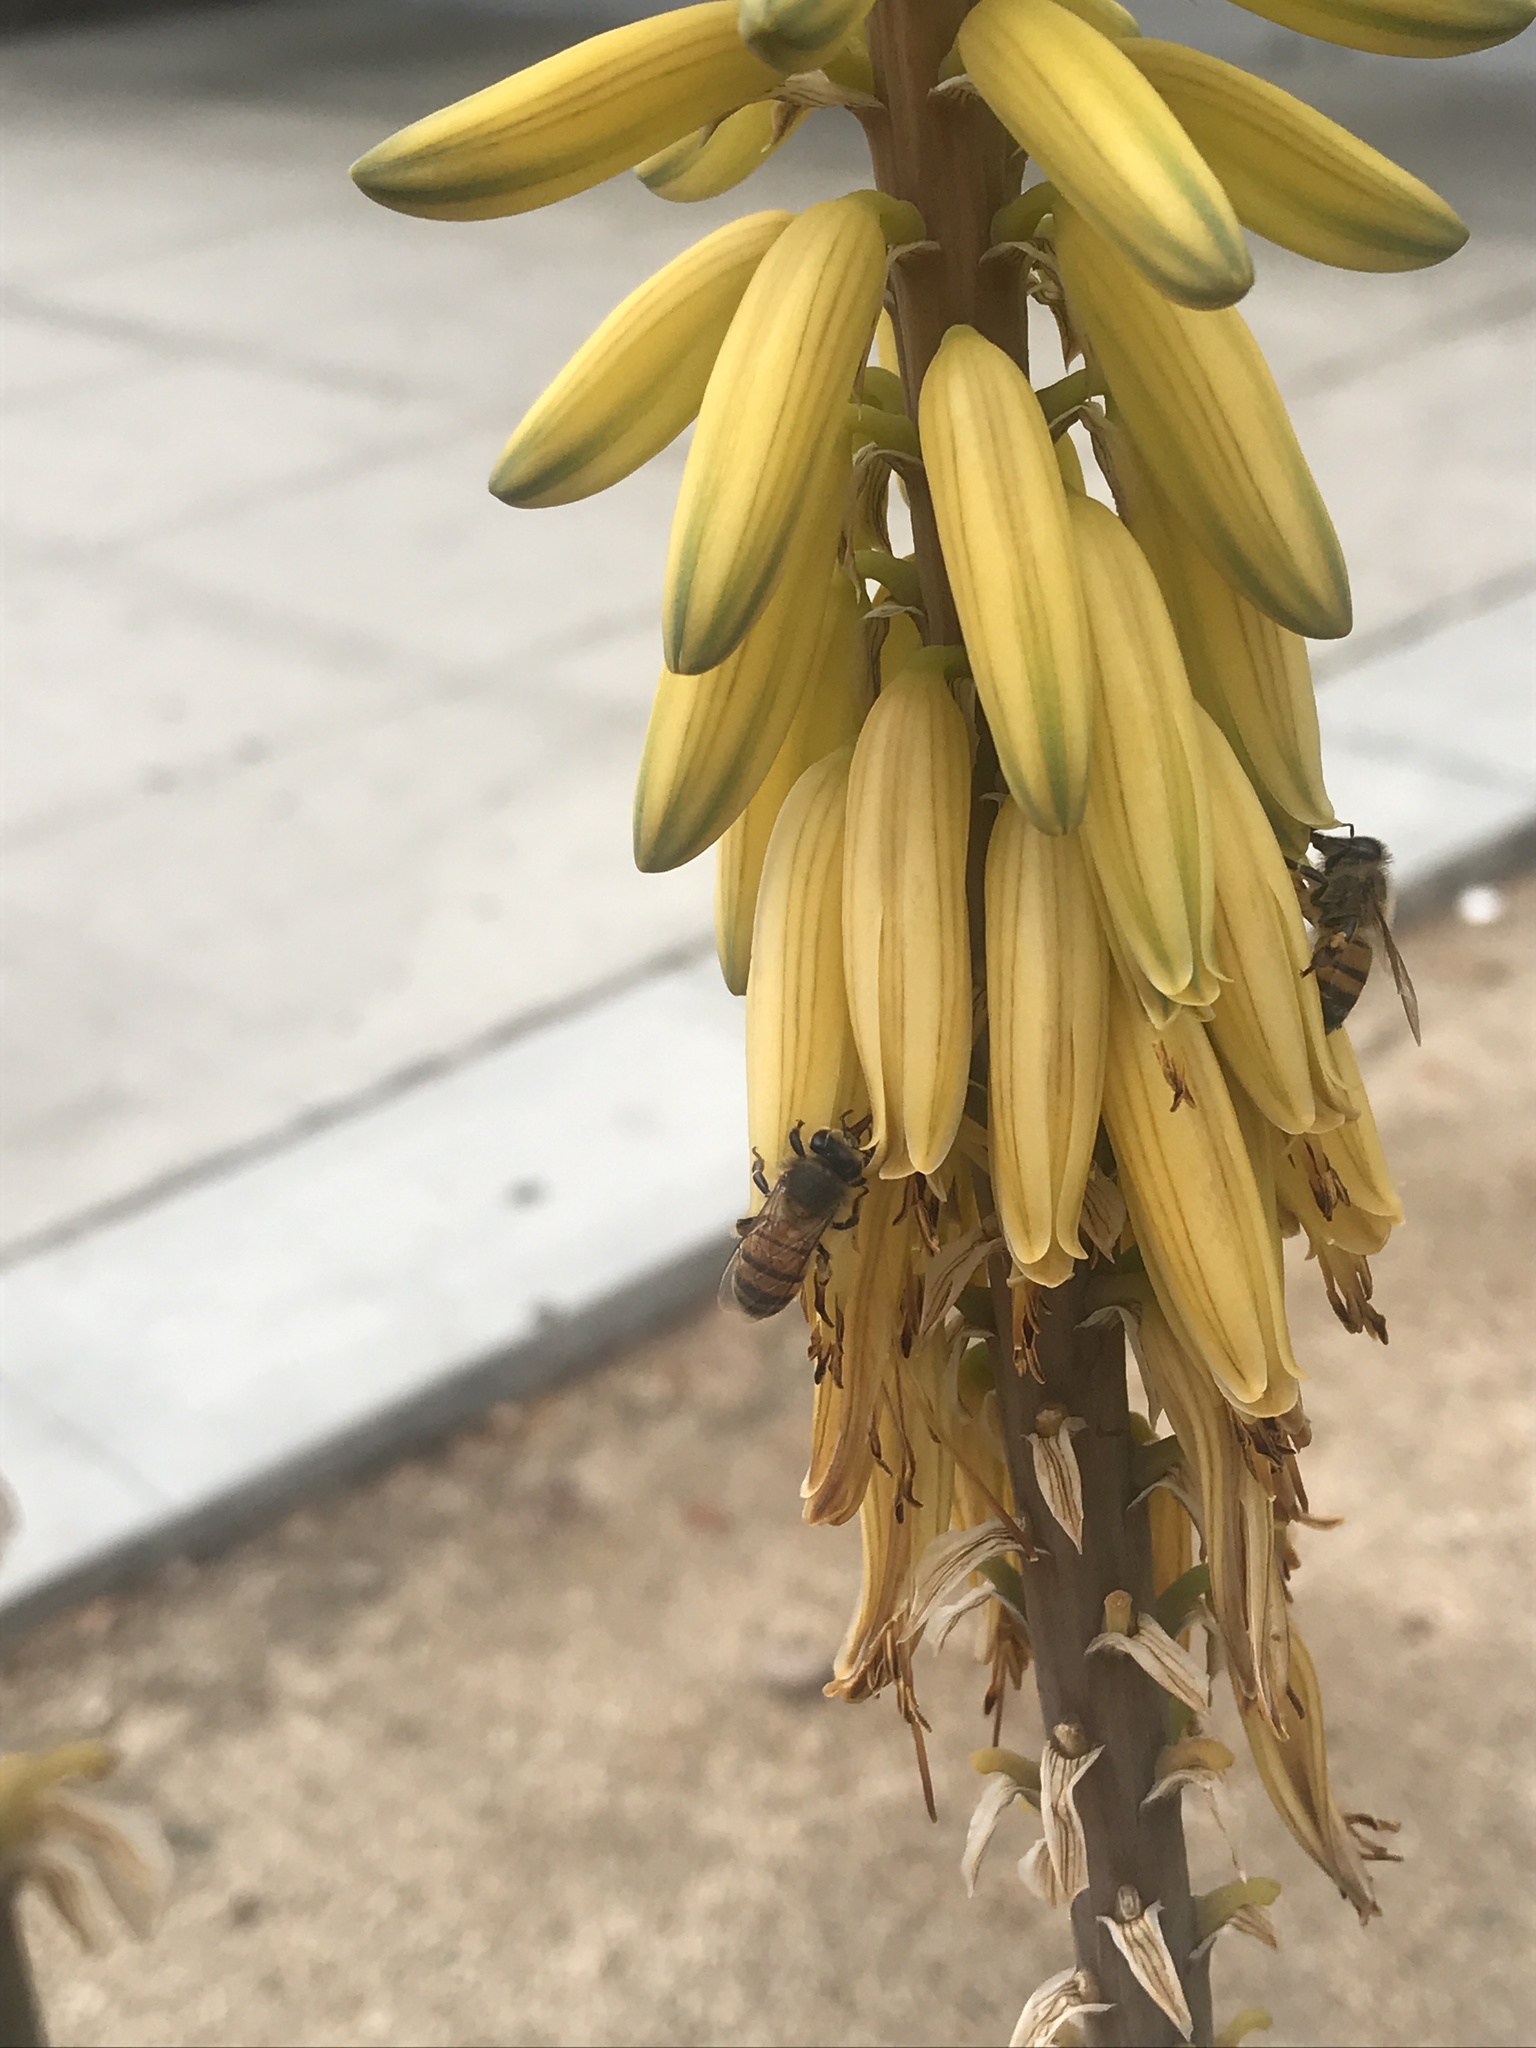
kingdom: Animalia
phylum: Arthropoda
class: Insecta
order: Hymenoptera
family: Apidae
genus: Apis
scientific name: Apis mellifera
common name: Honey bee
